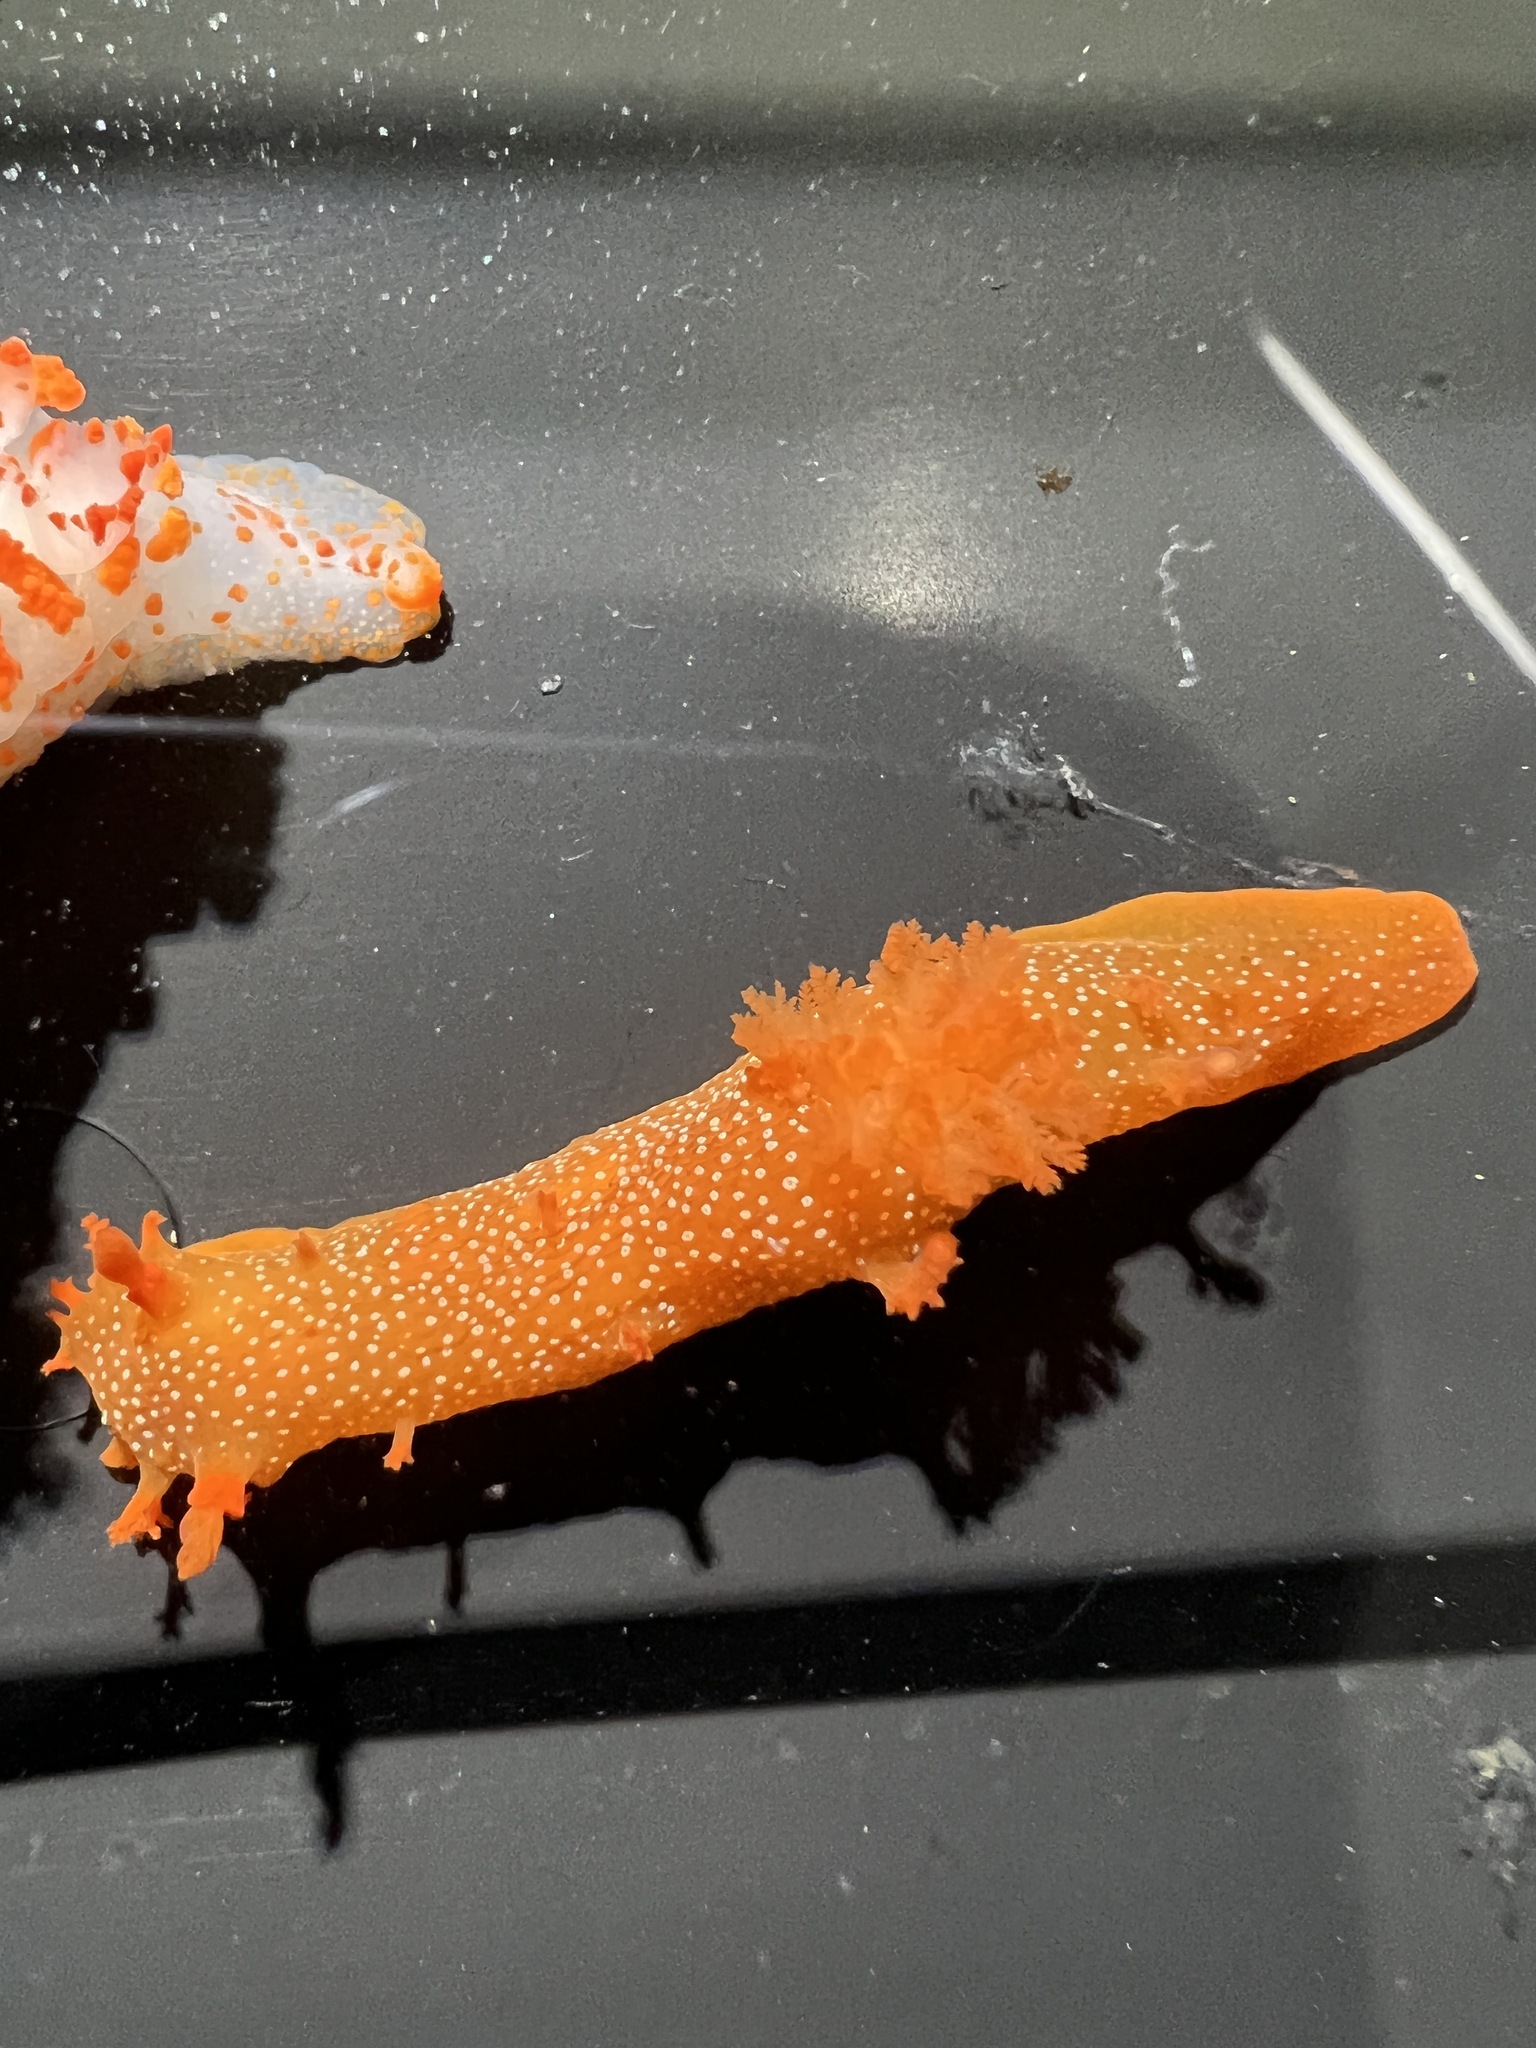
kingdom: Animalia
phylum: Mollusca
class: Gastropoda
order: Nudibranchia
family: Polyceridae
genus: Triopha
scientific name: Triopha maculata
